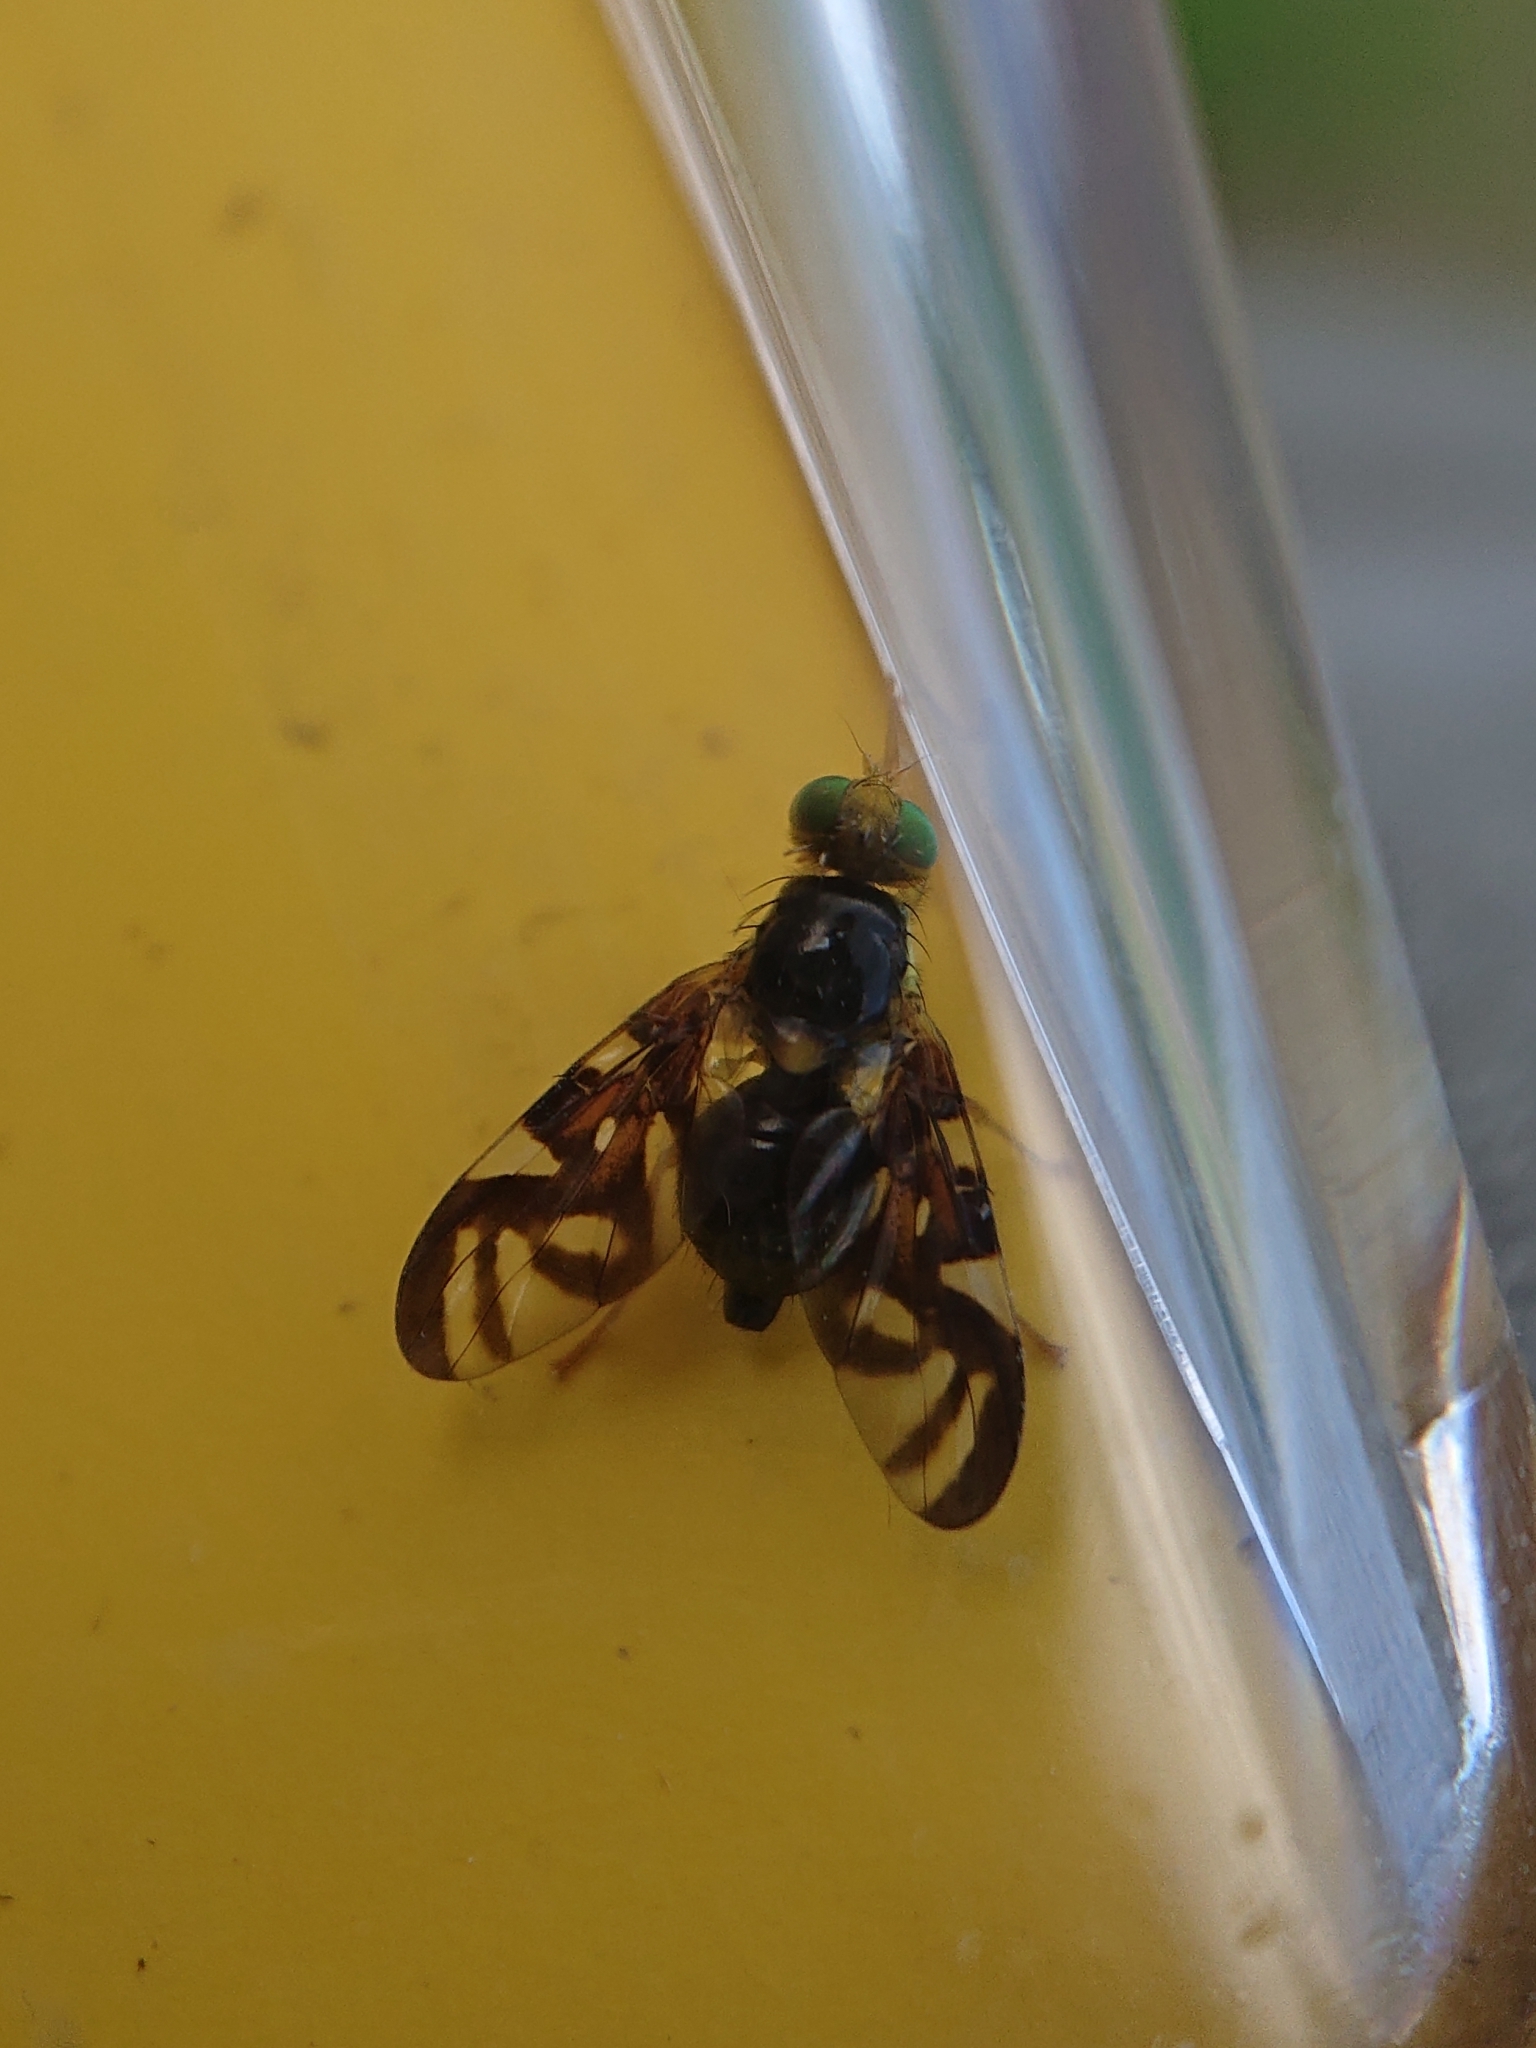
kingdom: Animalia
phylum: Arthropoda
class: Insecta
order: Diptera
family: Tephritidae
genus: Euleia
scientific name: Euleia heraclei
